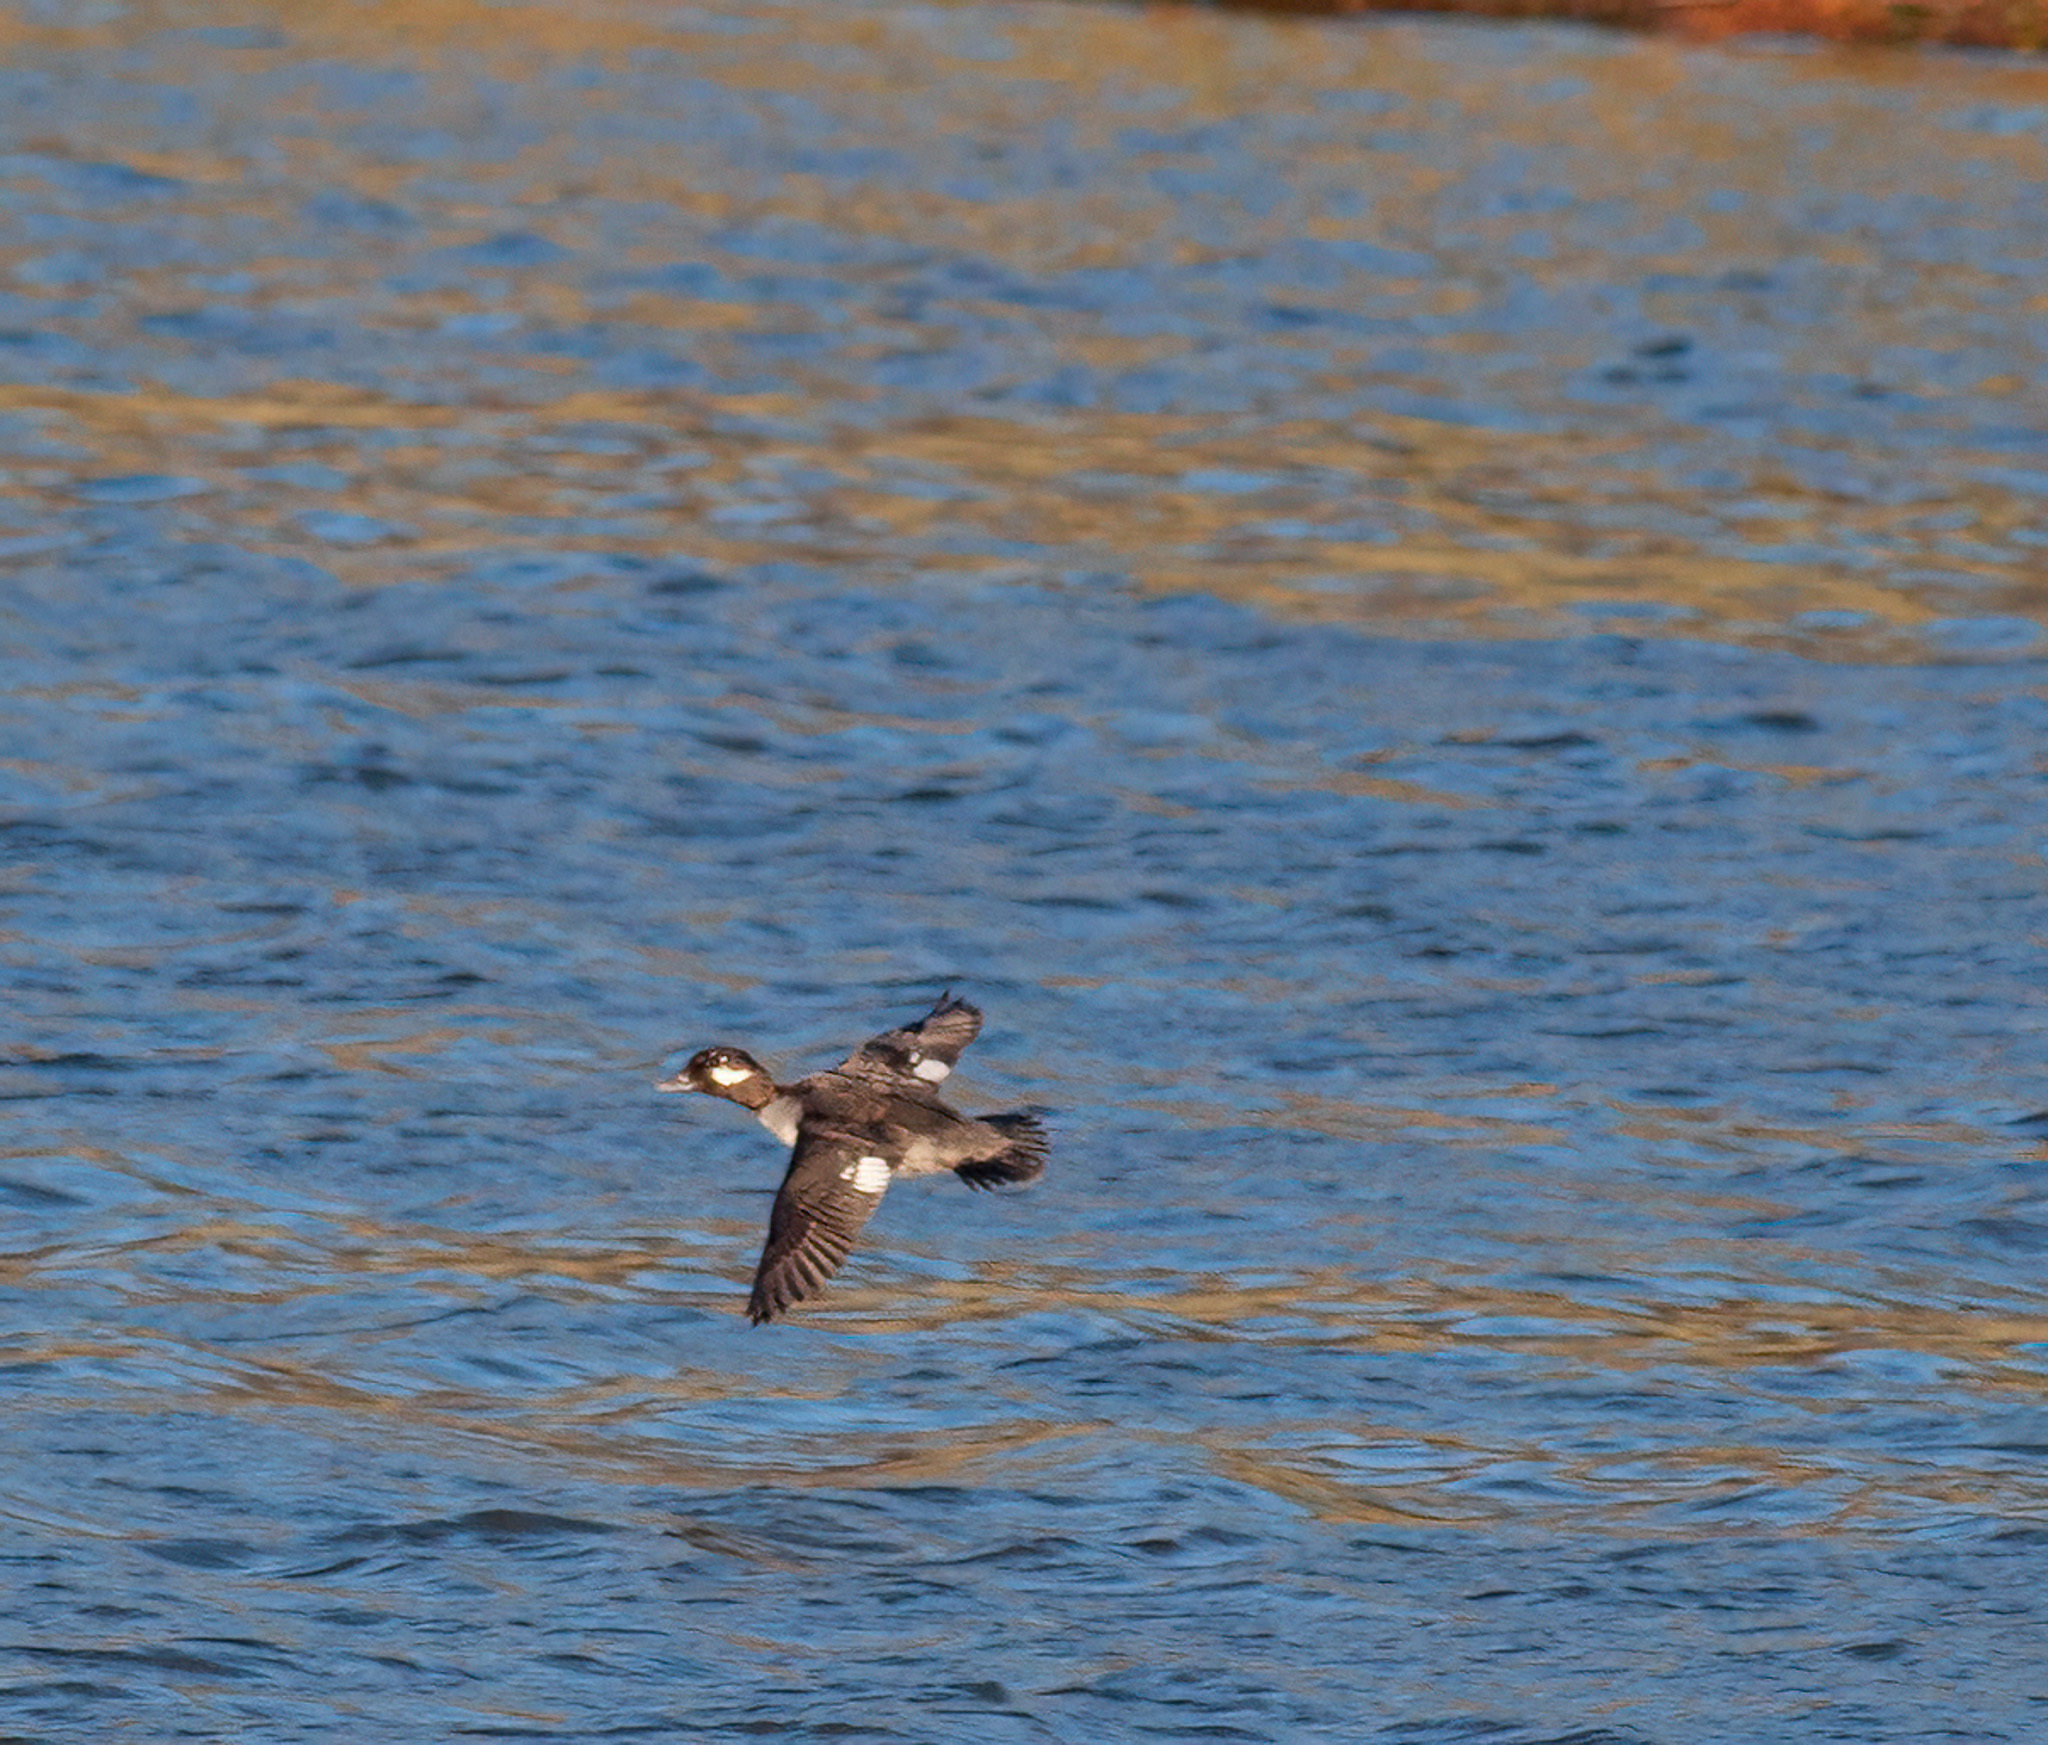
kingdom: Animalia
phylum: Chordata
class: Aves
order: Anseriformes
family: Anatidae
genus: Bucephala
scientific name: Bucephala albeola
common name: Bufflehead
